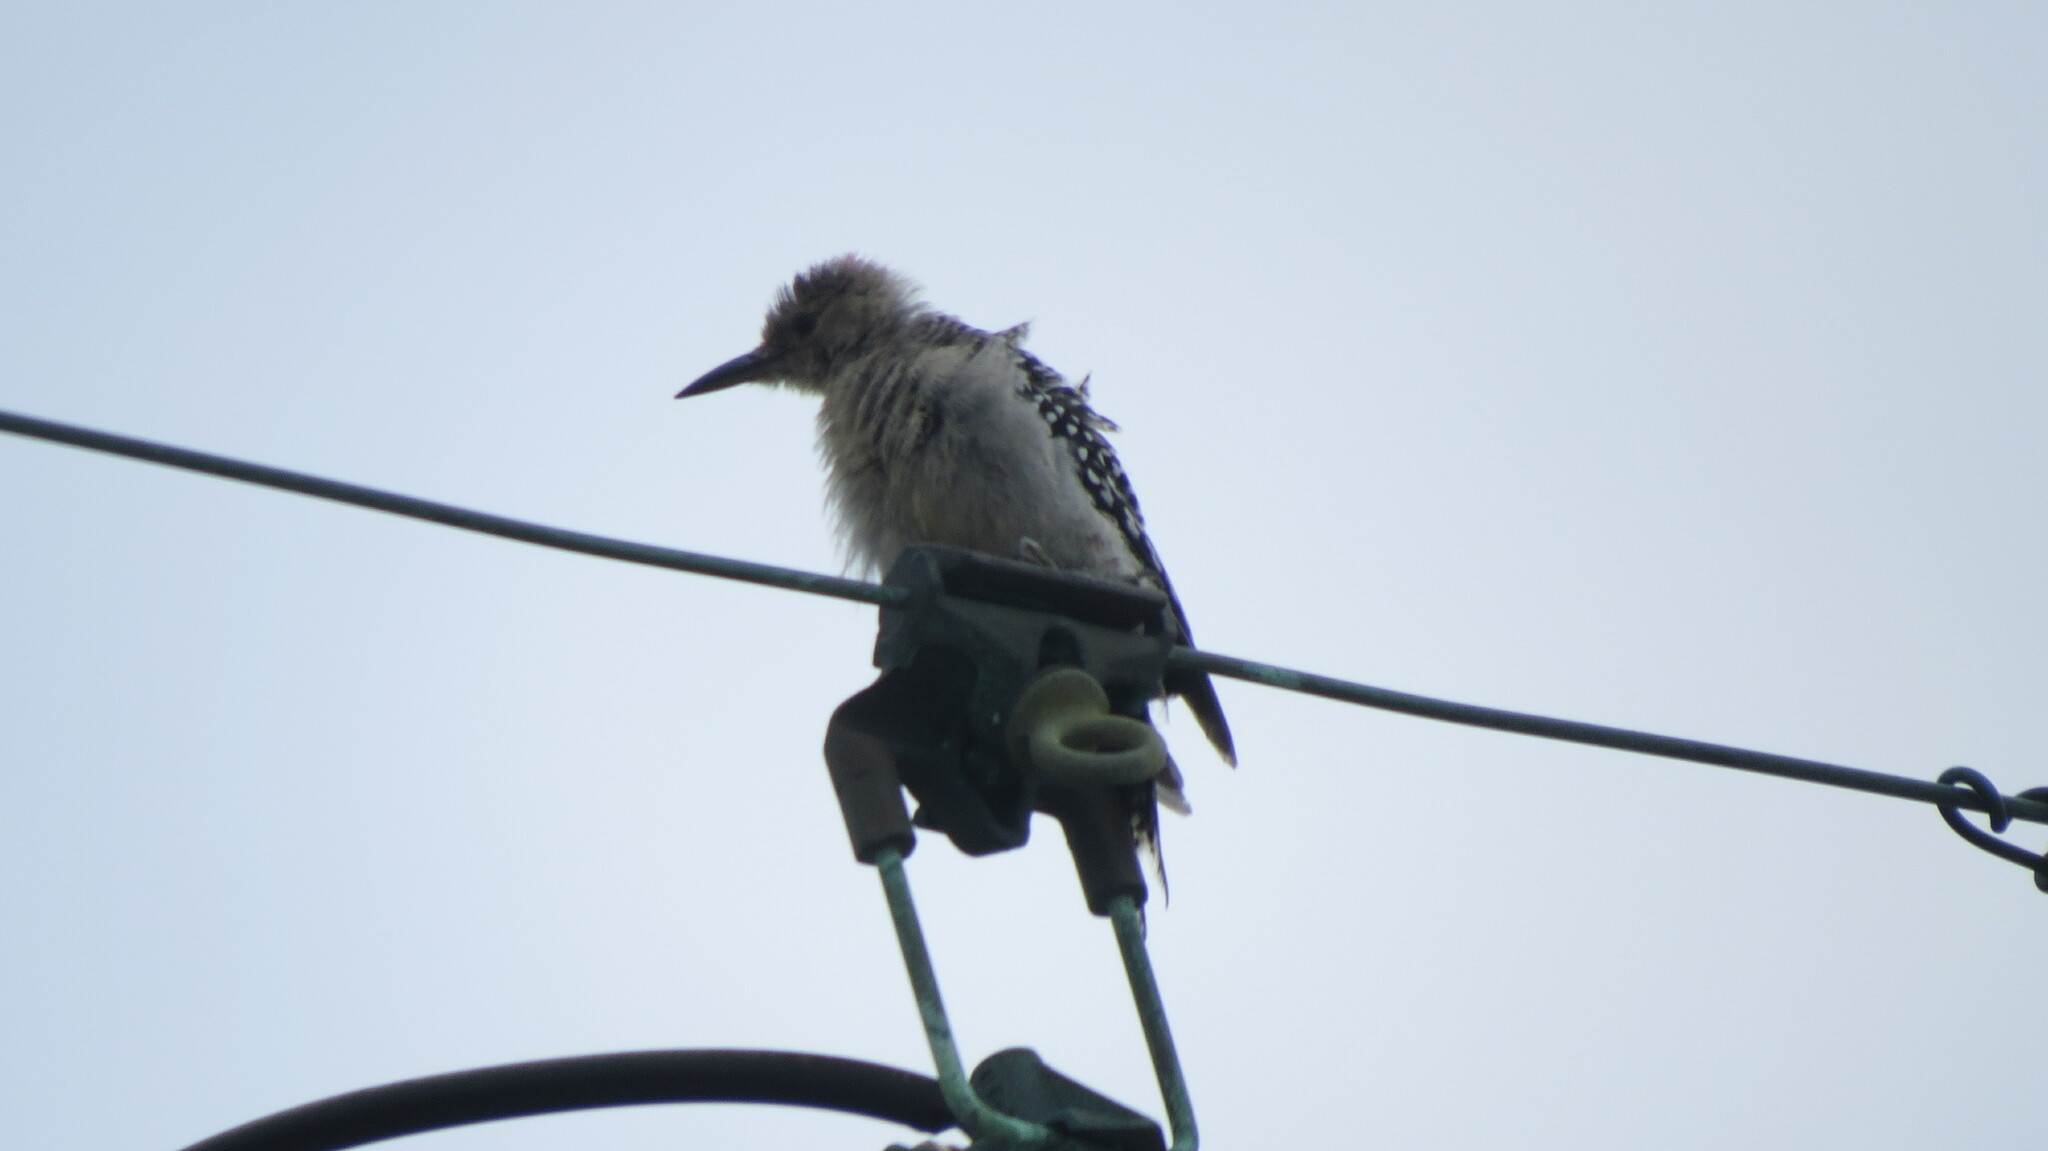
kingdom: Animalia
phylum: Chordata
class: Aves
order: Piciformes
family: Picidae
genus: Melanerpes
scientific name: Melanerpes carolinus
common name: Red-bellied woodpecker
